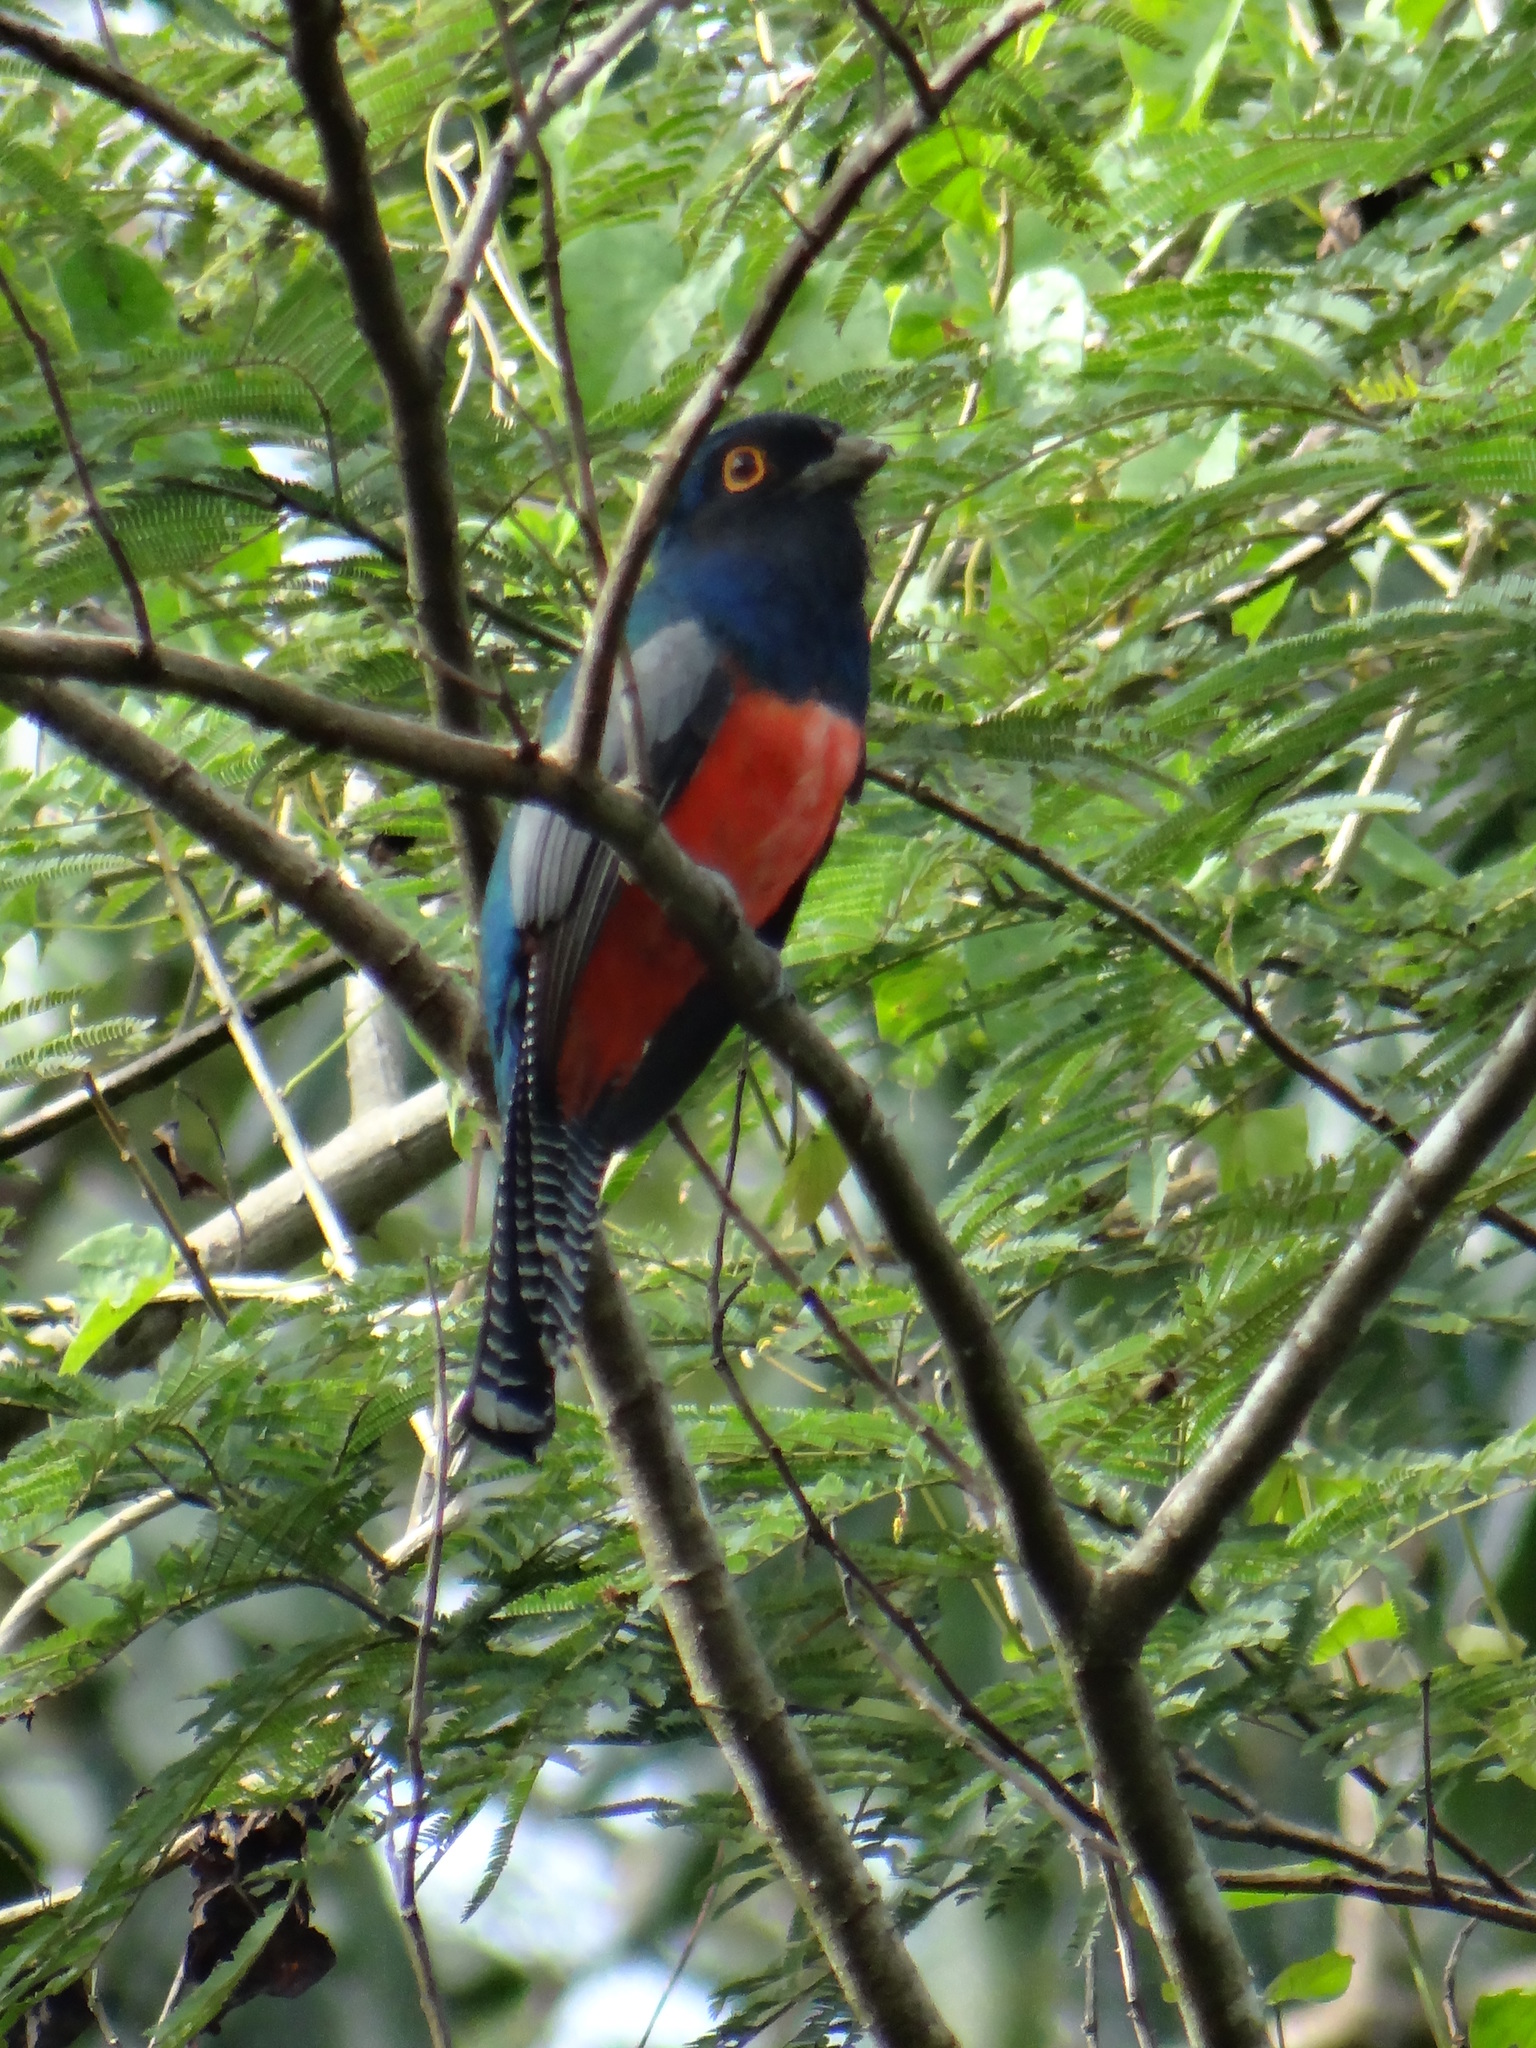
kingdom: Animalia
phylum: Chordata
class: Aves
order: Trogoniformes
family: Trogonidae
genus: Trogon
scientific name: Trogon curucui
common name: Blue-crowned trogon
